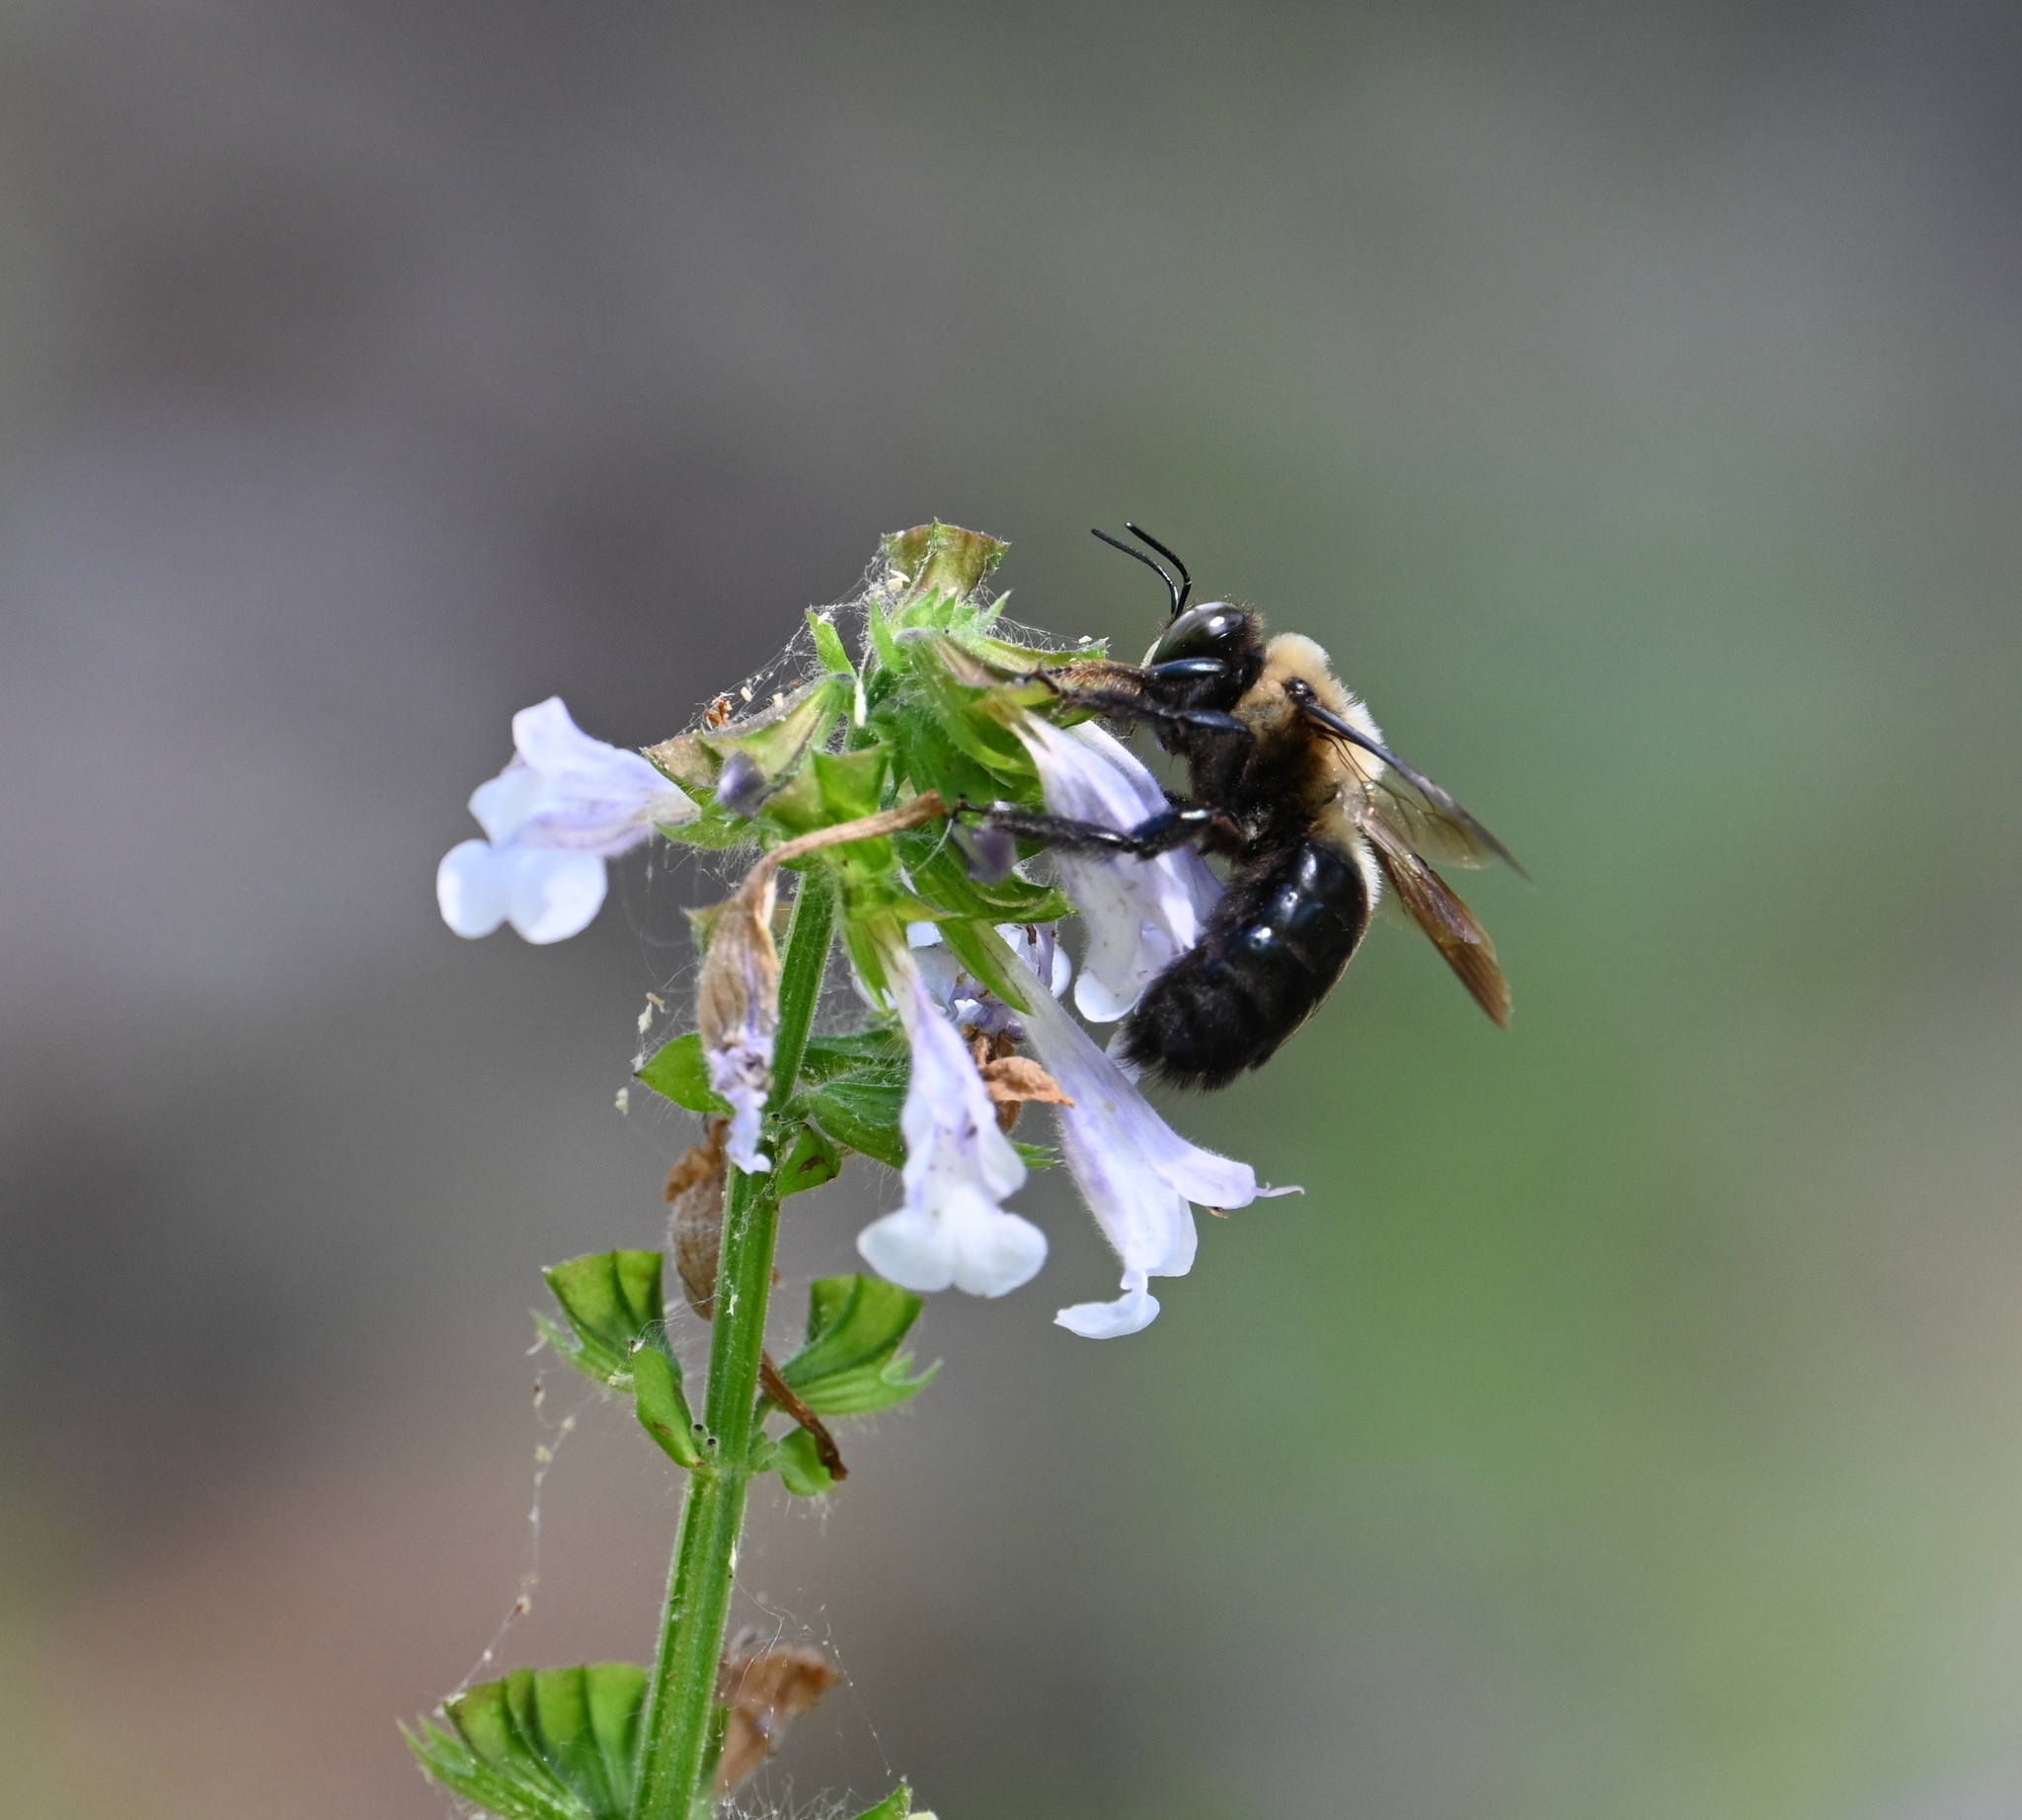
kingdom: Animalia
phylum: Arthropoda
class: Insecta
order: Hymenoptera
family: Apidae
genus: Xylocopa
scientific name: Xylocopa virginica
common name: Carpenter bee
